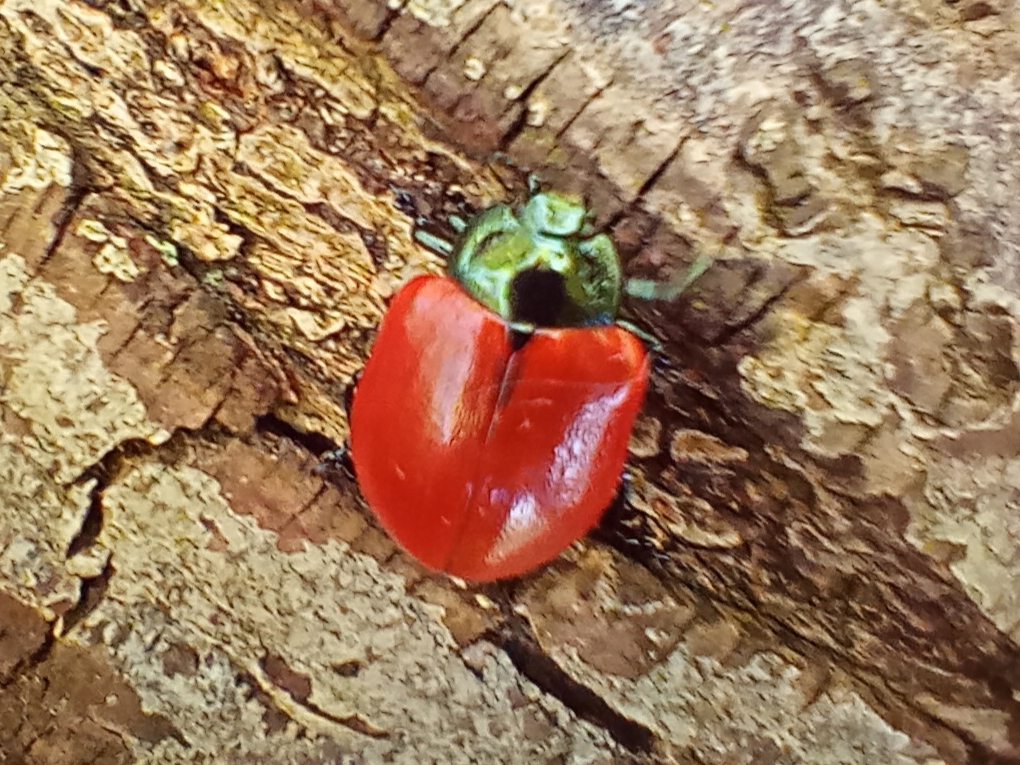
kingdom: Animalia
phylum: Arthropoda
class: Insecta
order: Coleoptera
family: Chrysomelidae
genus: Chrysomela
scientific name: Chrysomela populi
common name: Red poplar leaf beetle
